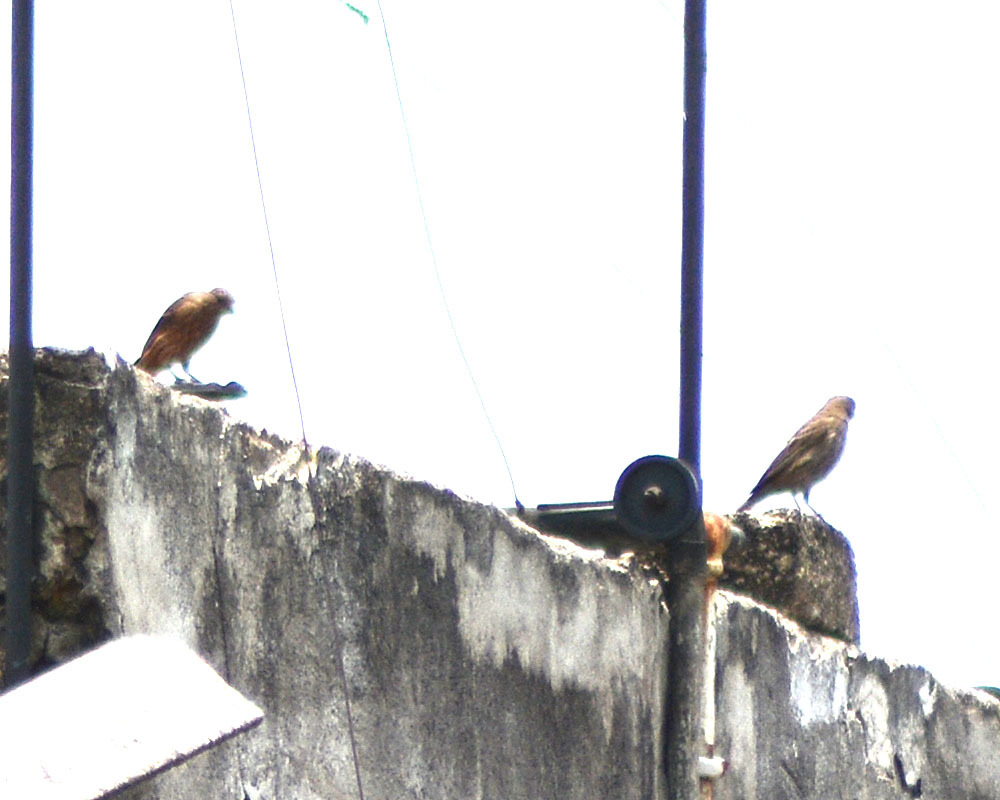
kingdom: Animalia
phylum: Chordata
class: Aves
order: Passeriformes
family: Fringillidae
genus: Haemorhous
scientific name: Haemorhous mexicanus
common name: House finch
